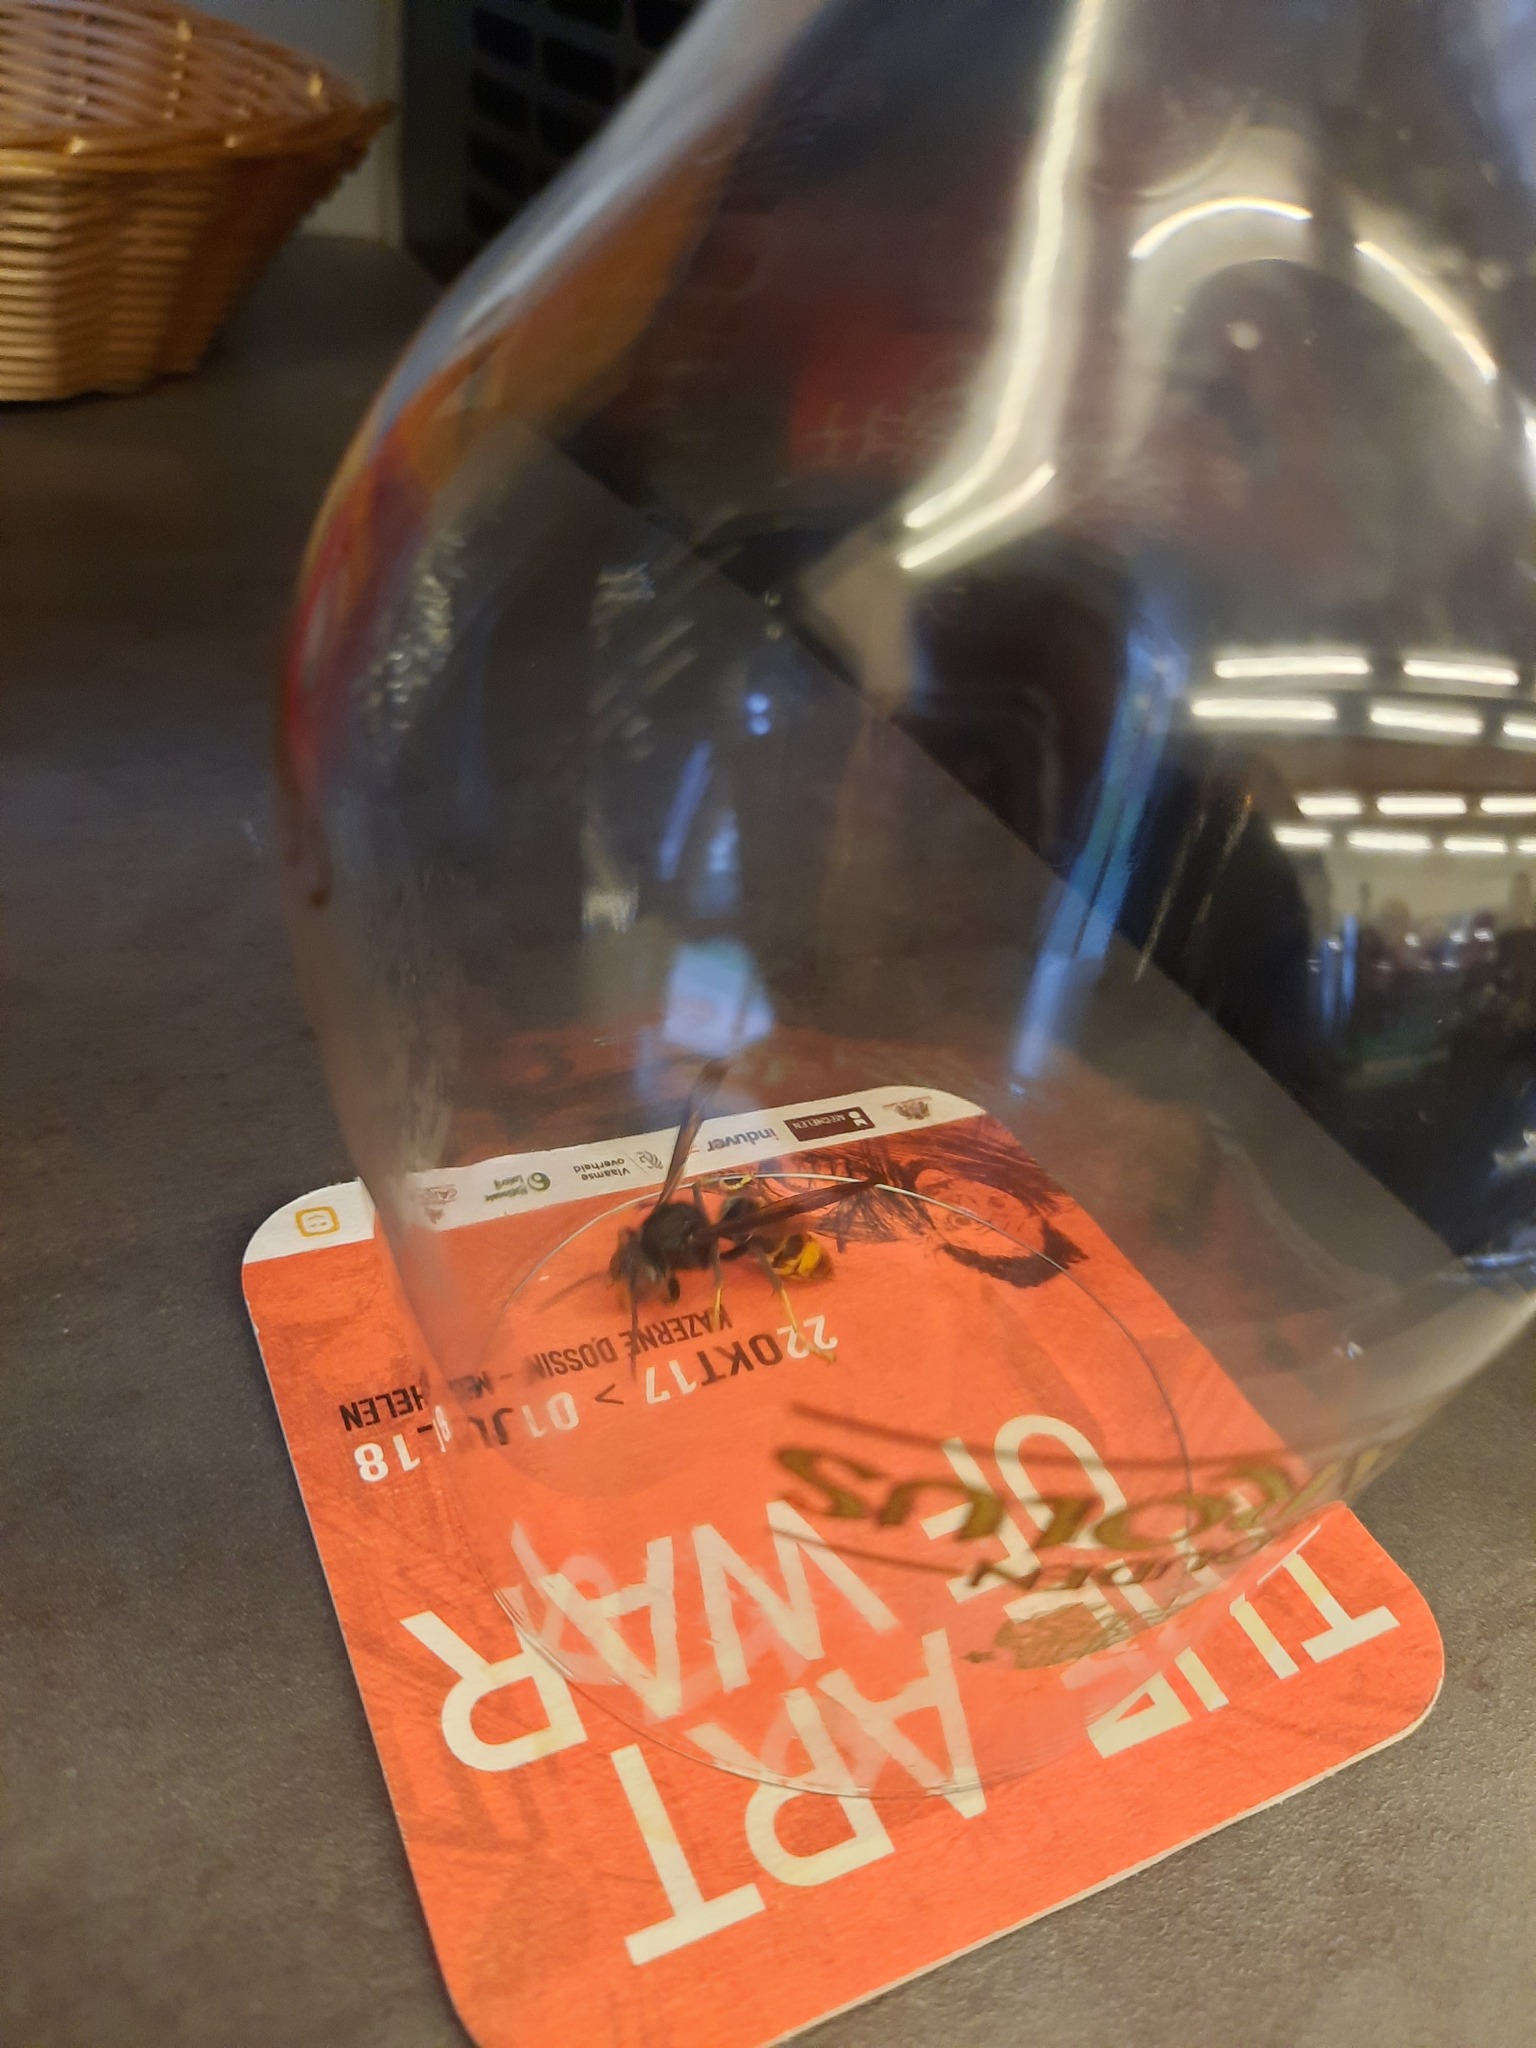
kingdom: Animalia
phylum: Arthropoda
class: Insecta
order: Hymenoptera
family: Vespidae
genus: Vespa
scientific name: Vespa velutina
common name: Asian hornet
